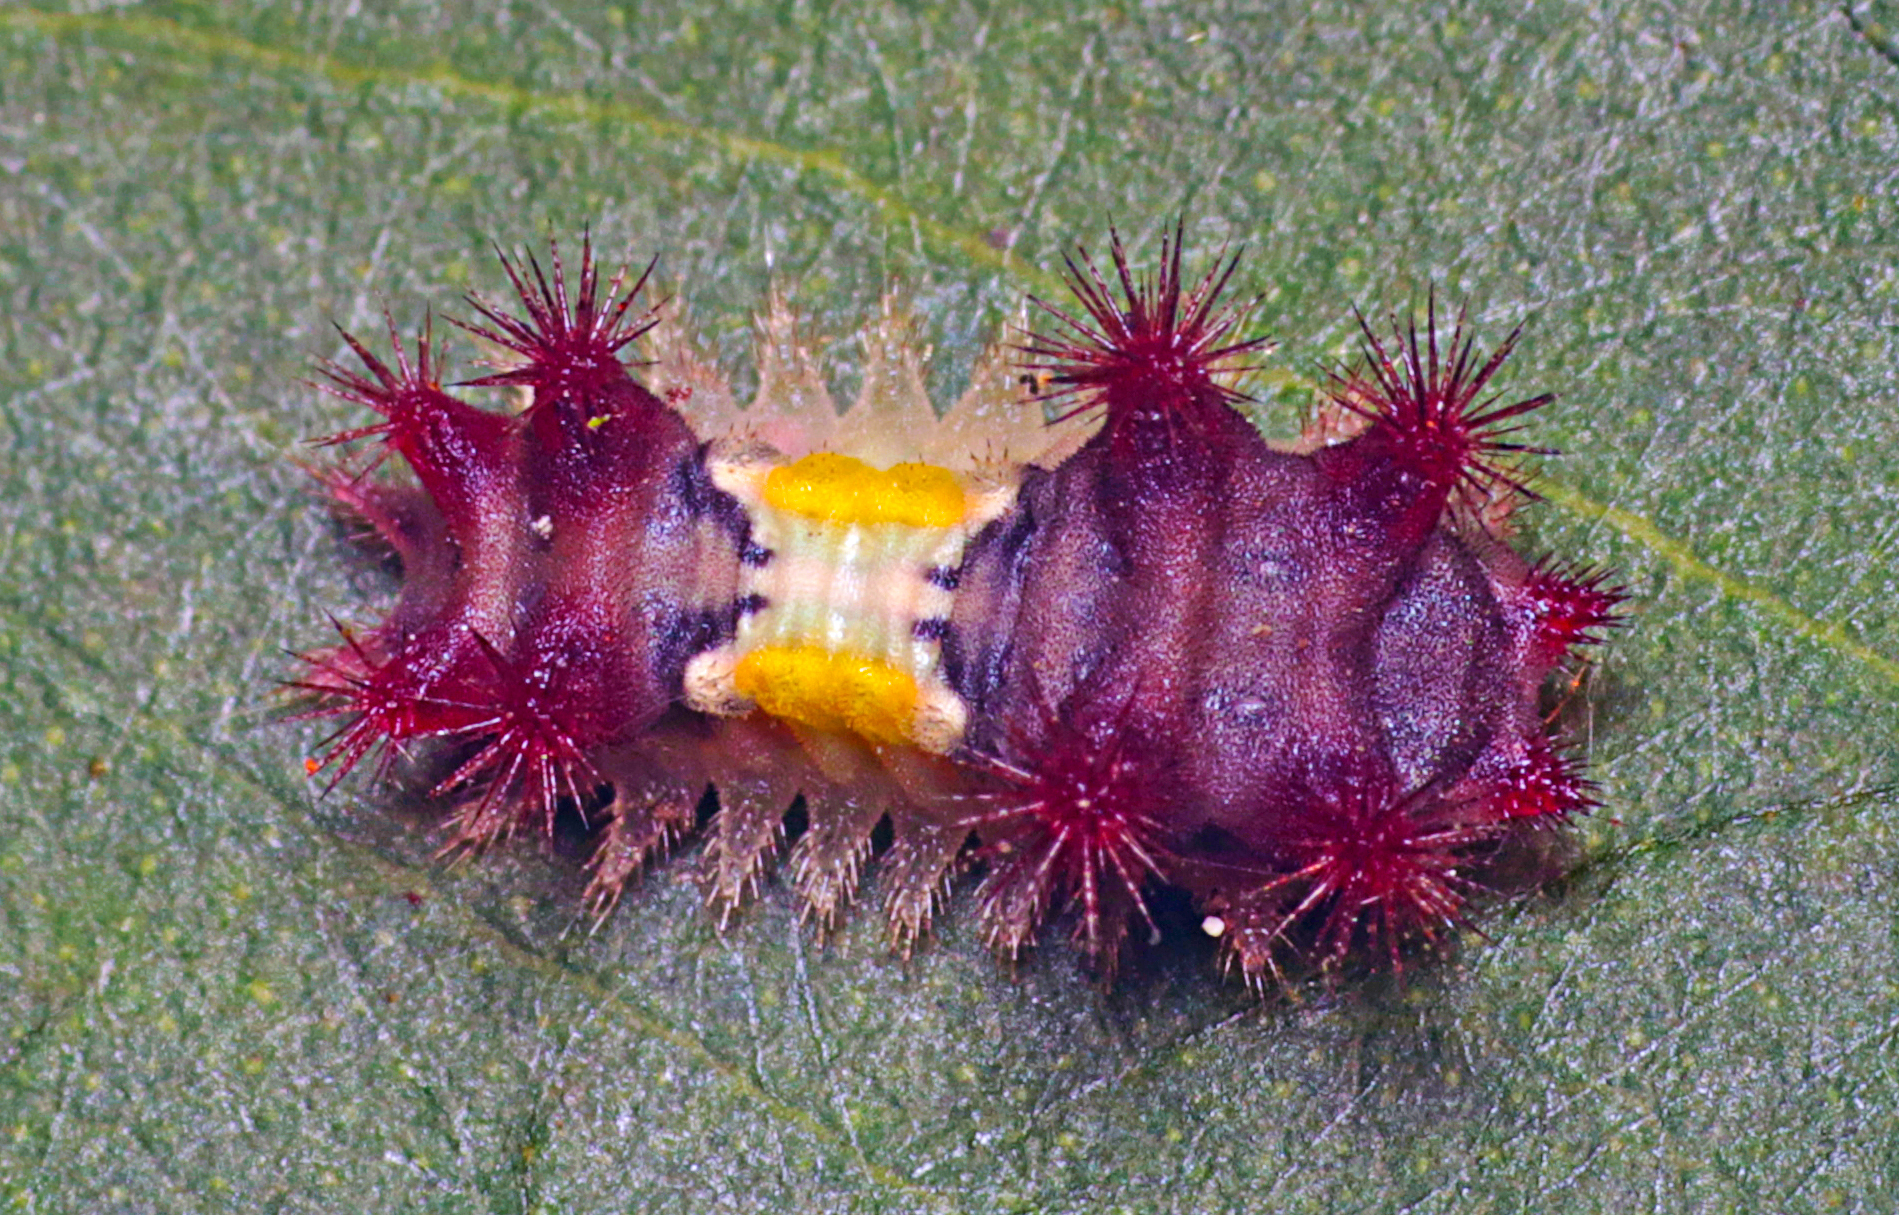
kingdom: Animalia
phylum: Arthropoda
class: Insecta
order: Lepidoptera
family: Limacodidae
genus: Doratifera
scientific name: Doratifera vulnerans
